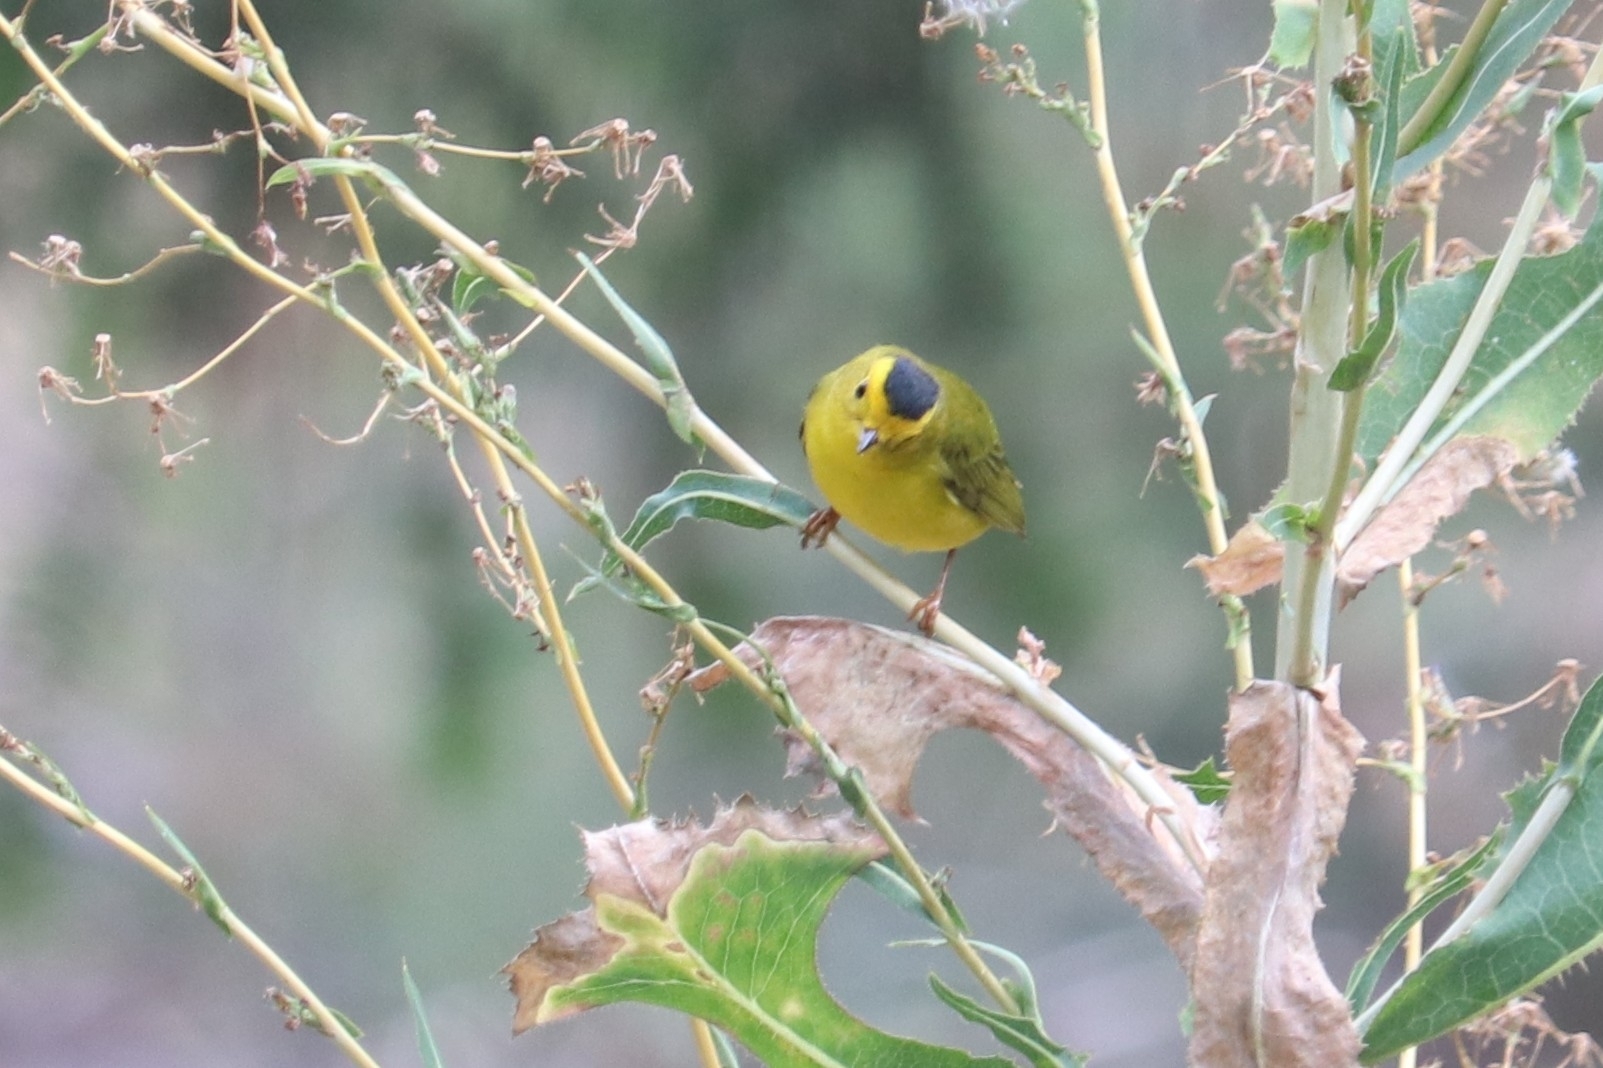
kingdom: Animalia
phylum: Chordata
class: Aves
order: Passeriformes
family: Parulidae
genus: Cardellina
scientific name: Cardellina pusilla
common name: Wilson's warbler
